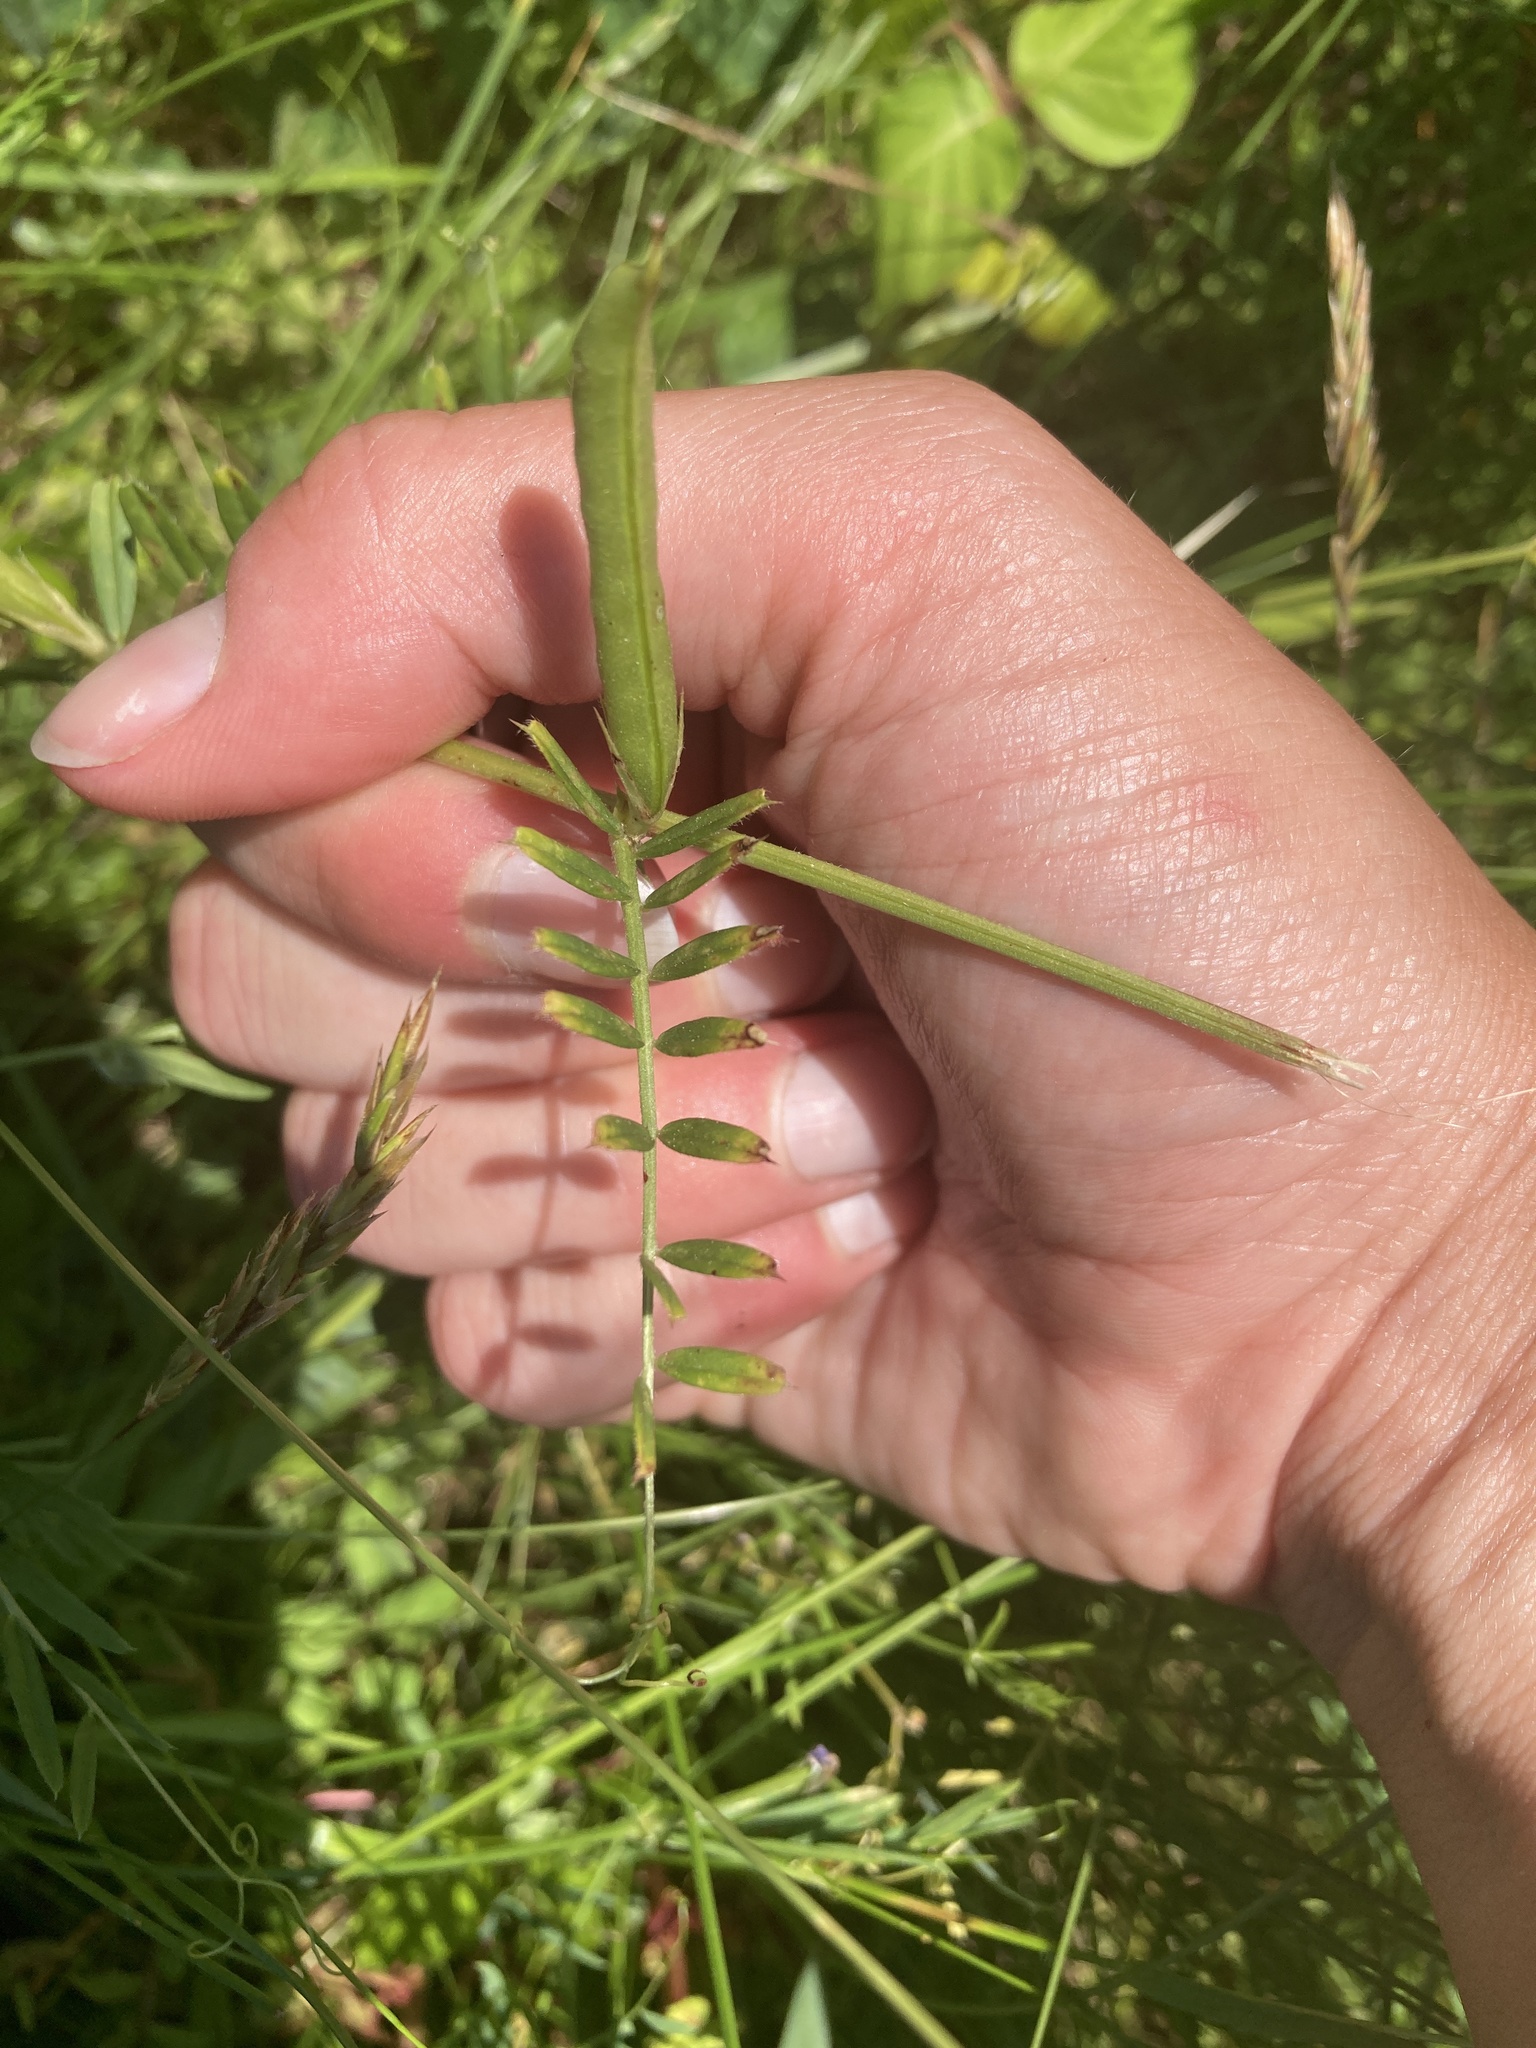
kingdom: Plantae
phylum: Tracheophyta
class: Magnoliopsida
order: Fabales
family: Fabaceae
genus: Vicia
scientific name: Vicia sativa
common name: Garden vetch
